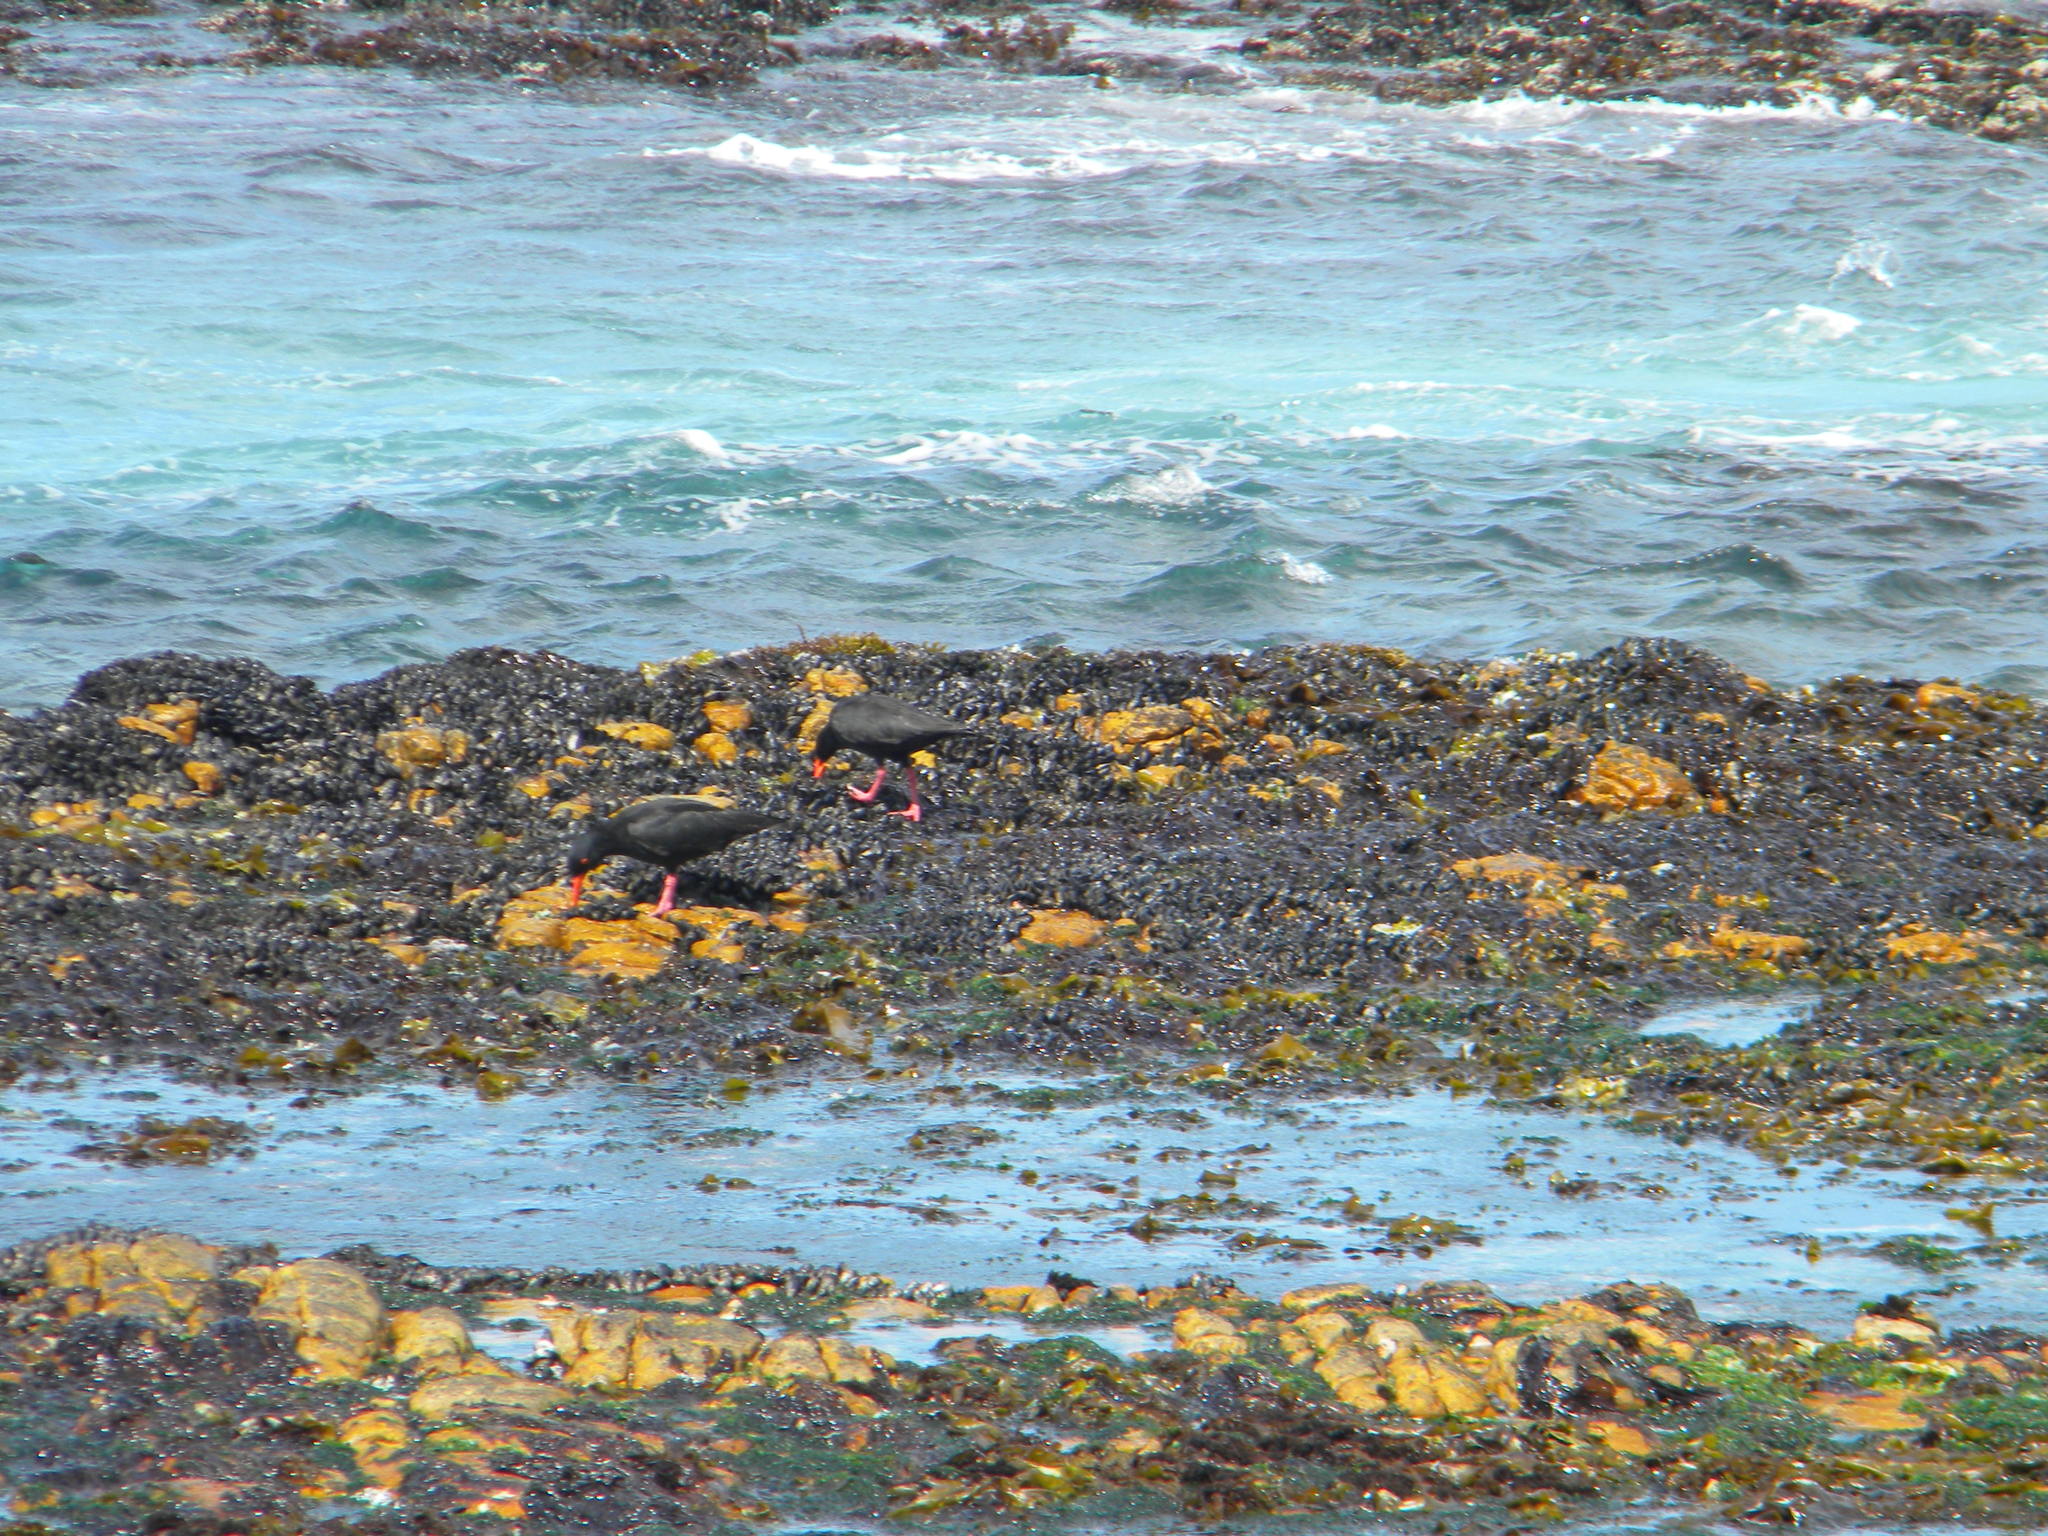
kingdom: Animalia
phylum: Chordata
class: Aves
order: Charadriiformes
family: Haematopodidae
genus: Haematopus
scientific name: Haematopus moquini
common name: African oystercatcher
